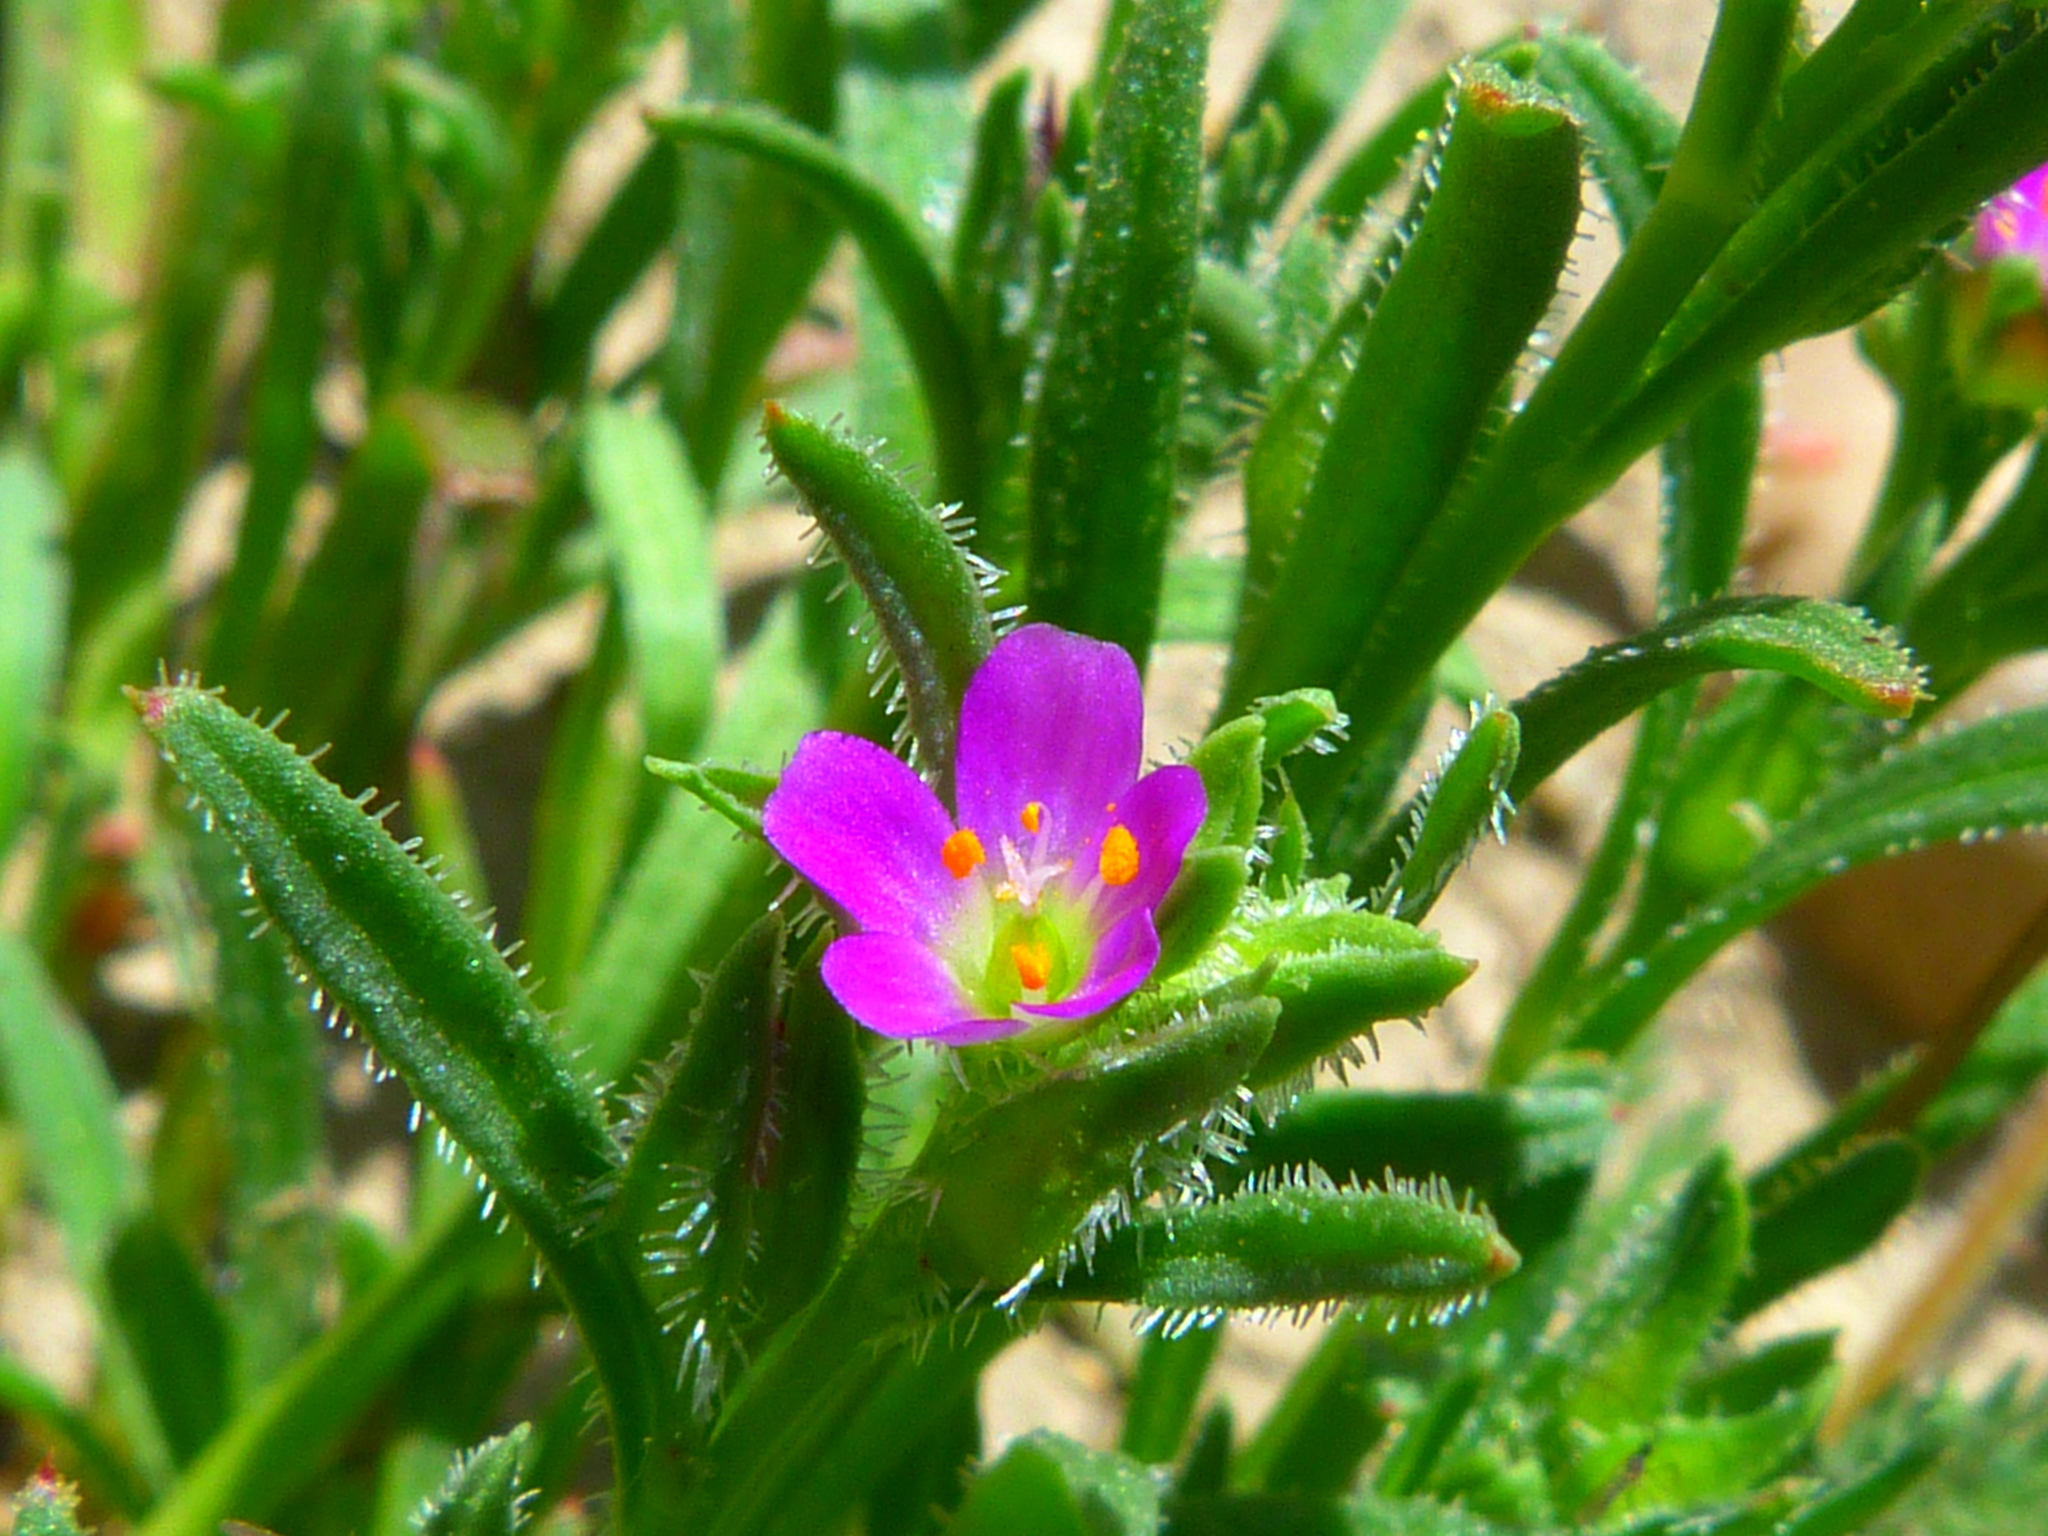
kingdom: Plantae
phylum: Tracheophyta
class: Magnoliopsida
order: Caryophyllales
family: Montiaceae
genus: Calandrinia
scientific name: Calandrinia menziesii
